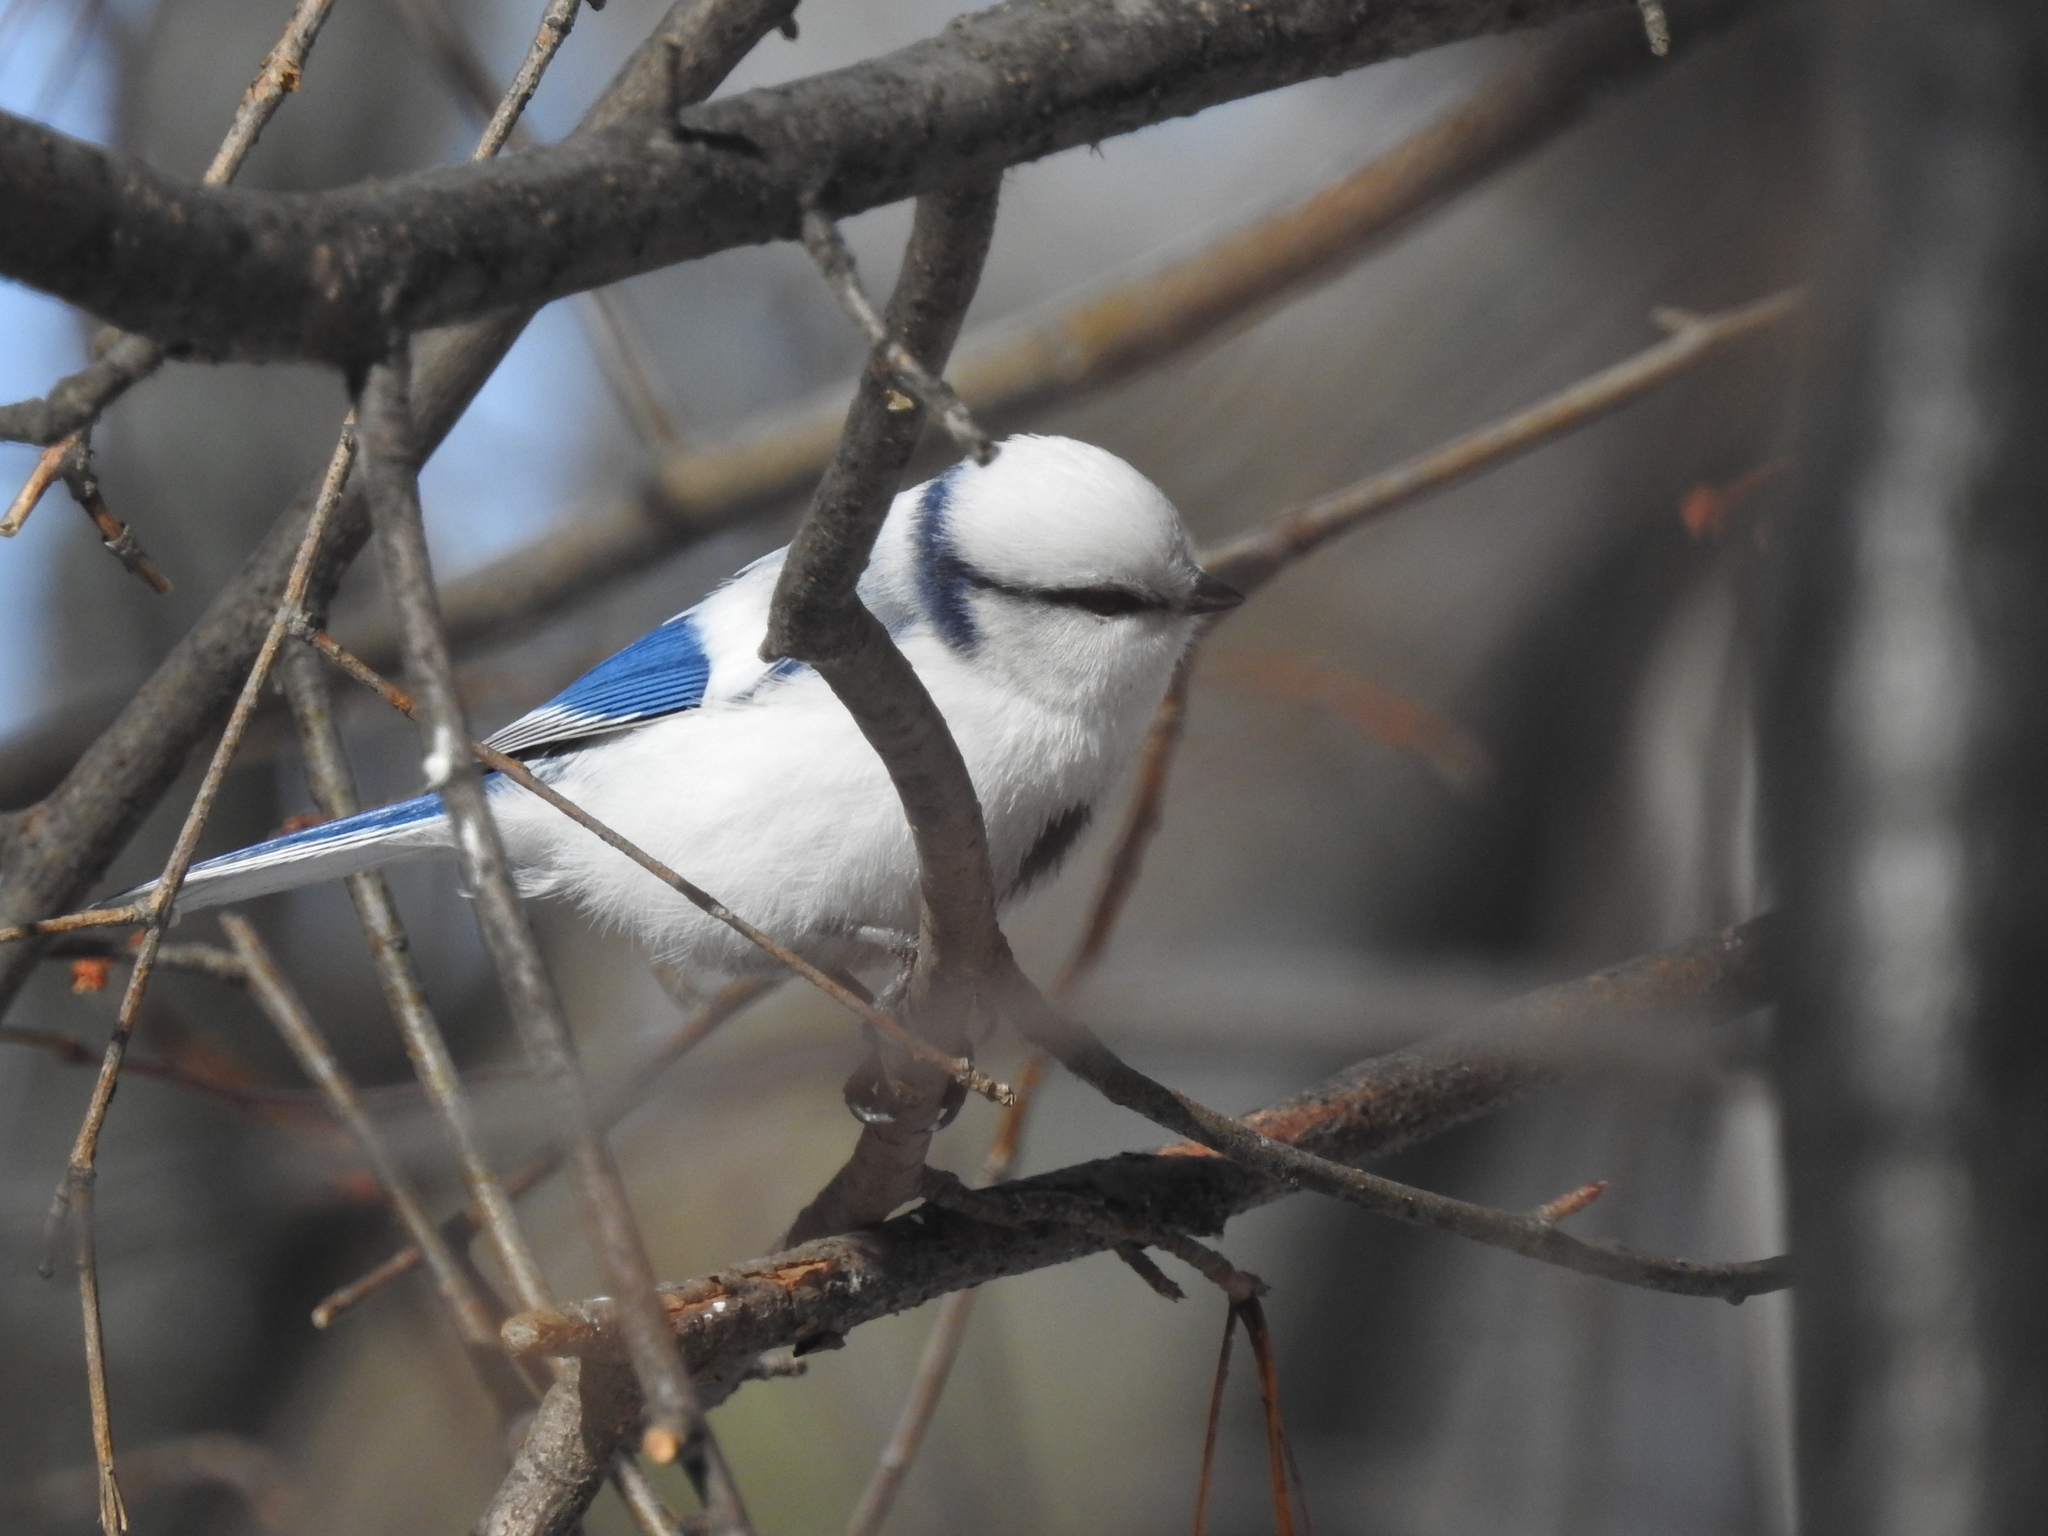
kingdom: Animalia
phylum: Chordata
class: Aves
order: Passeriformes
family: Paridae
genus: Cyanistes
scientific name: Cyanistes cyanus
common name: Azure tit
